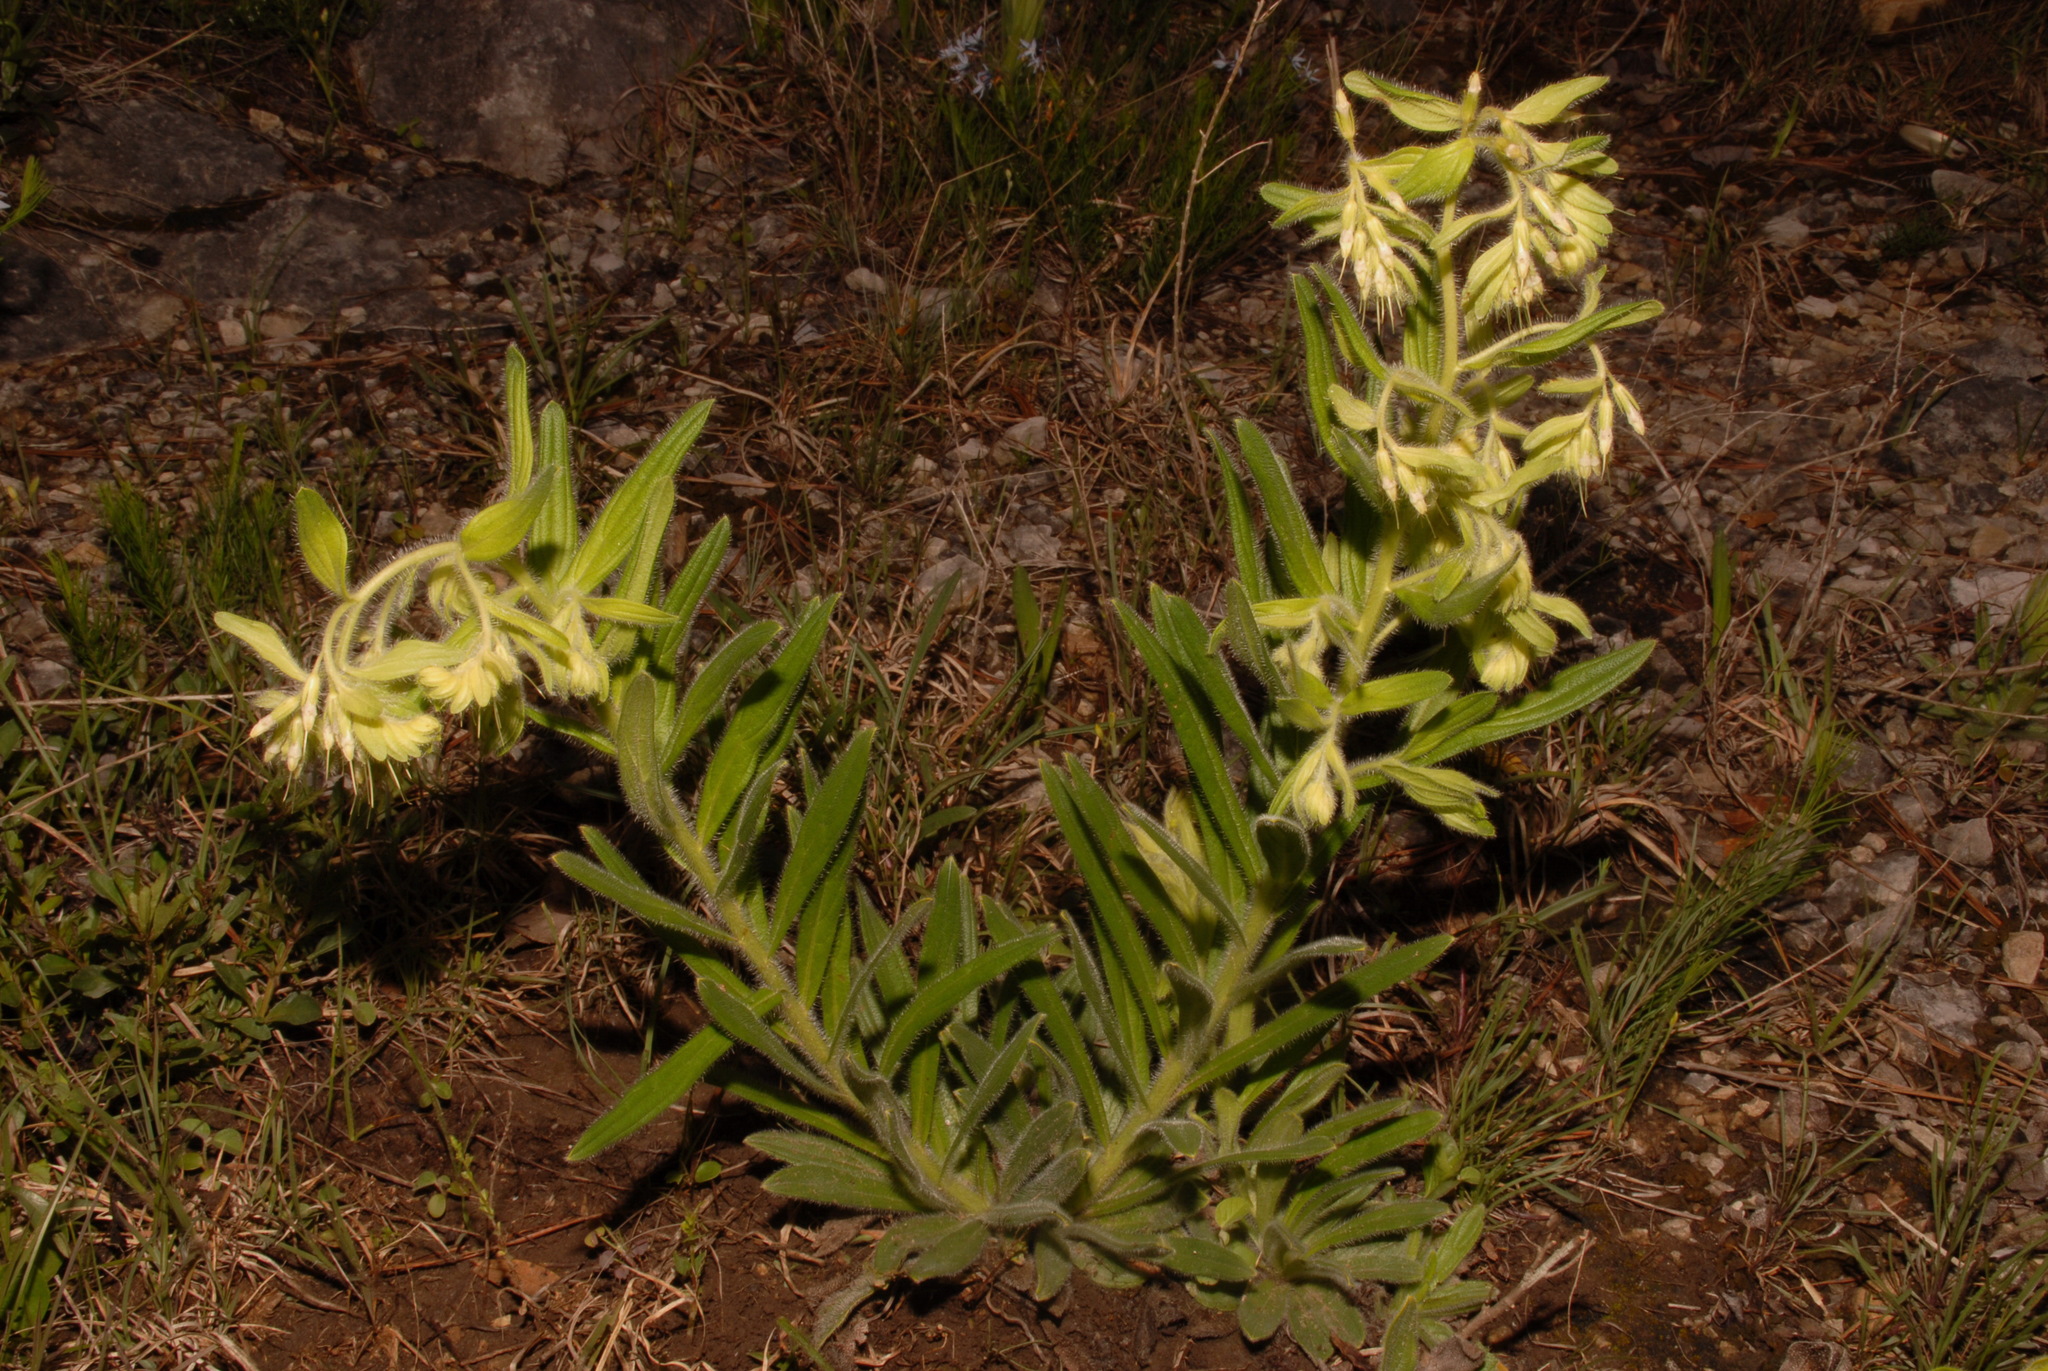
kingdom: Plantae
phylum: Tracheophyta
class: Magnoliopsida
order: Boraginales
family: Boraginaceae
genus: Lithospermum
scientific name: Lithospermum decipiens
